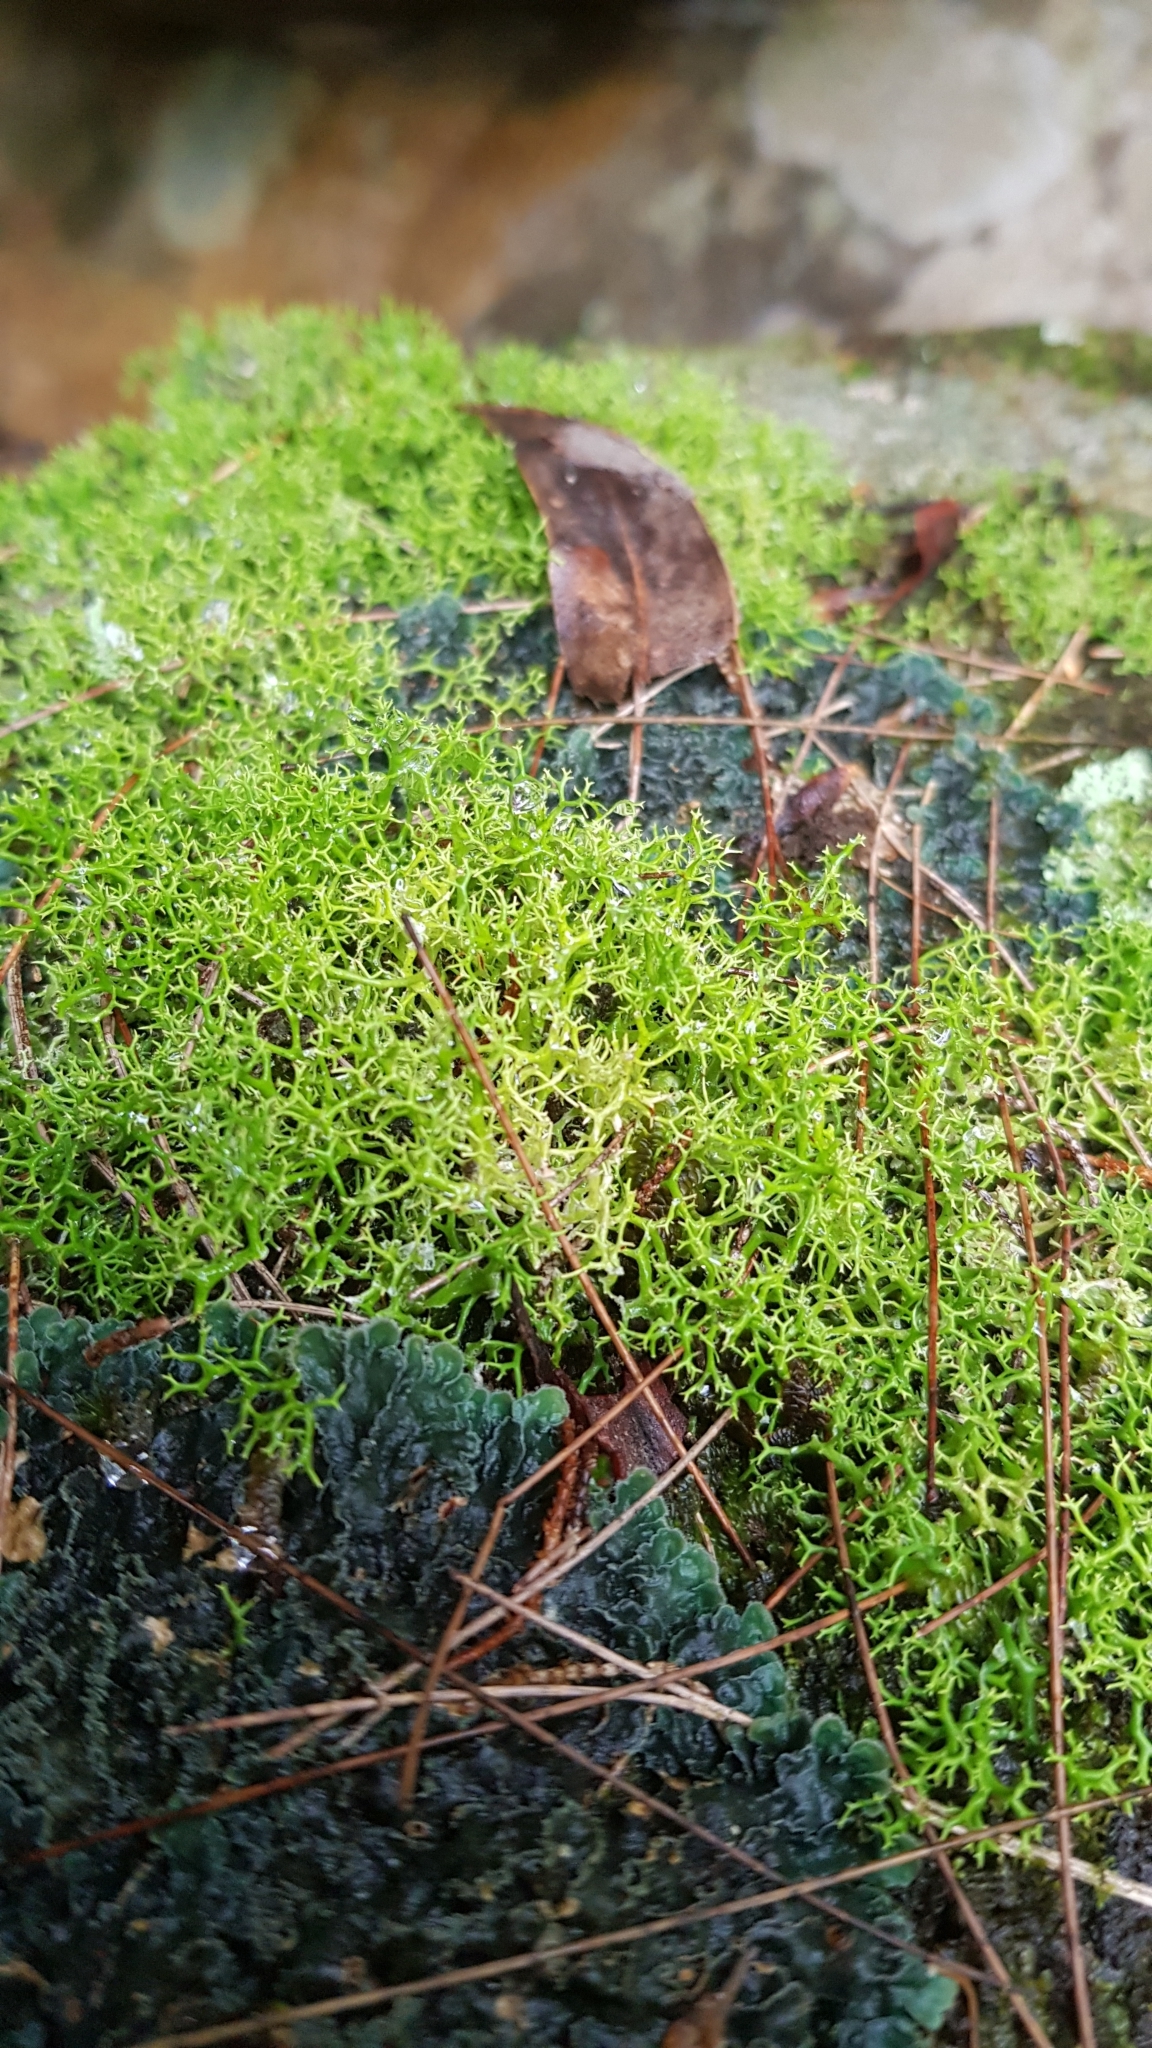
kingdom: Fungi
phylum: Ascomycota
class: Lecanoromycetes
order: Lecanorales
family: Cladoniaceae
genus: Cladia
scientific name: Cladia aggregata
